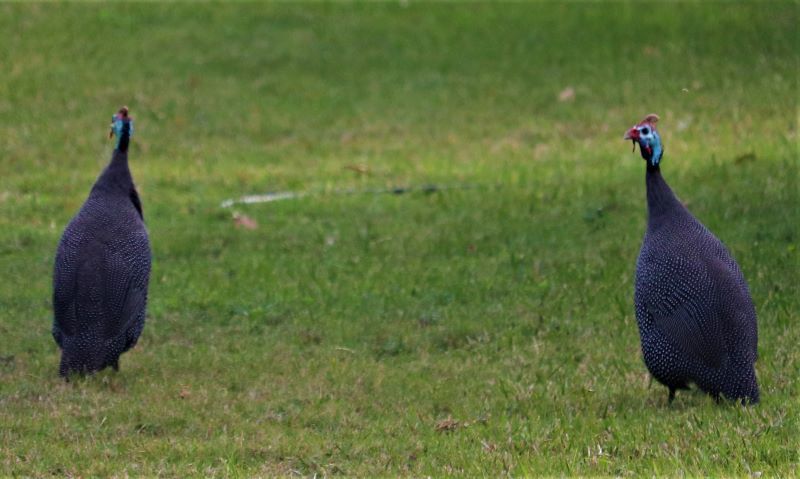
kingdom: Animalia
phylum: Chordata
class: Aves
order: Galliformes
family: Numididae
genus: Numida
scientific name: Numida meleagris
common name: Helmeted guineafowl
